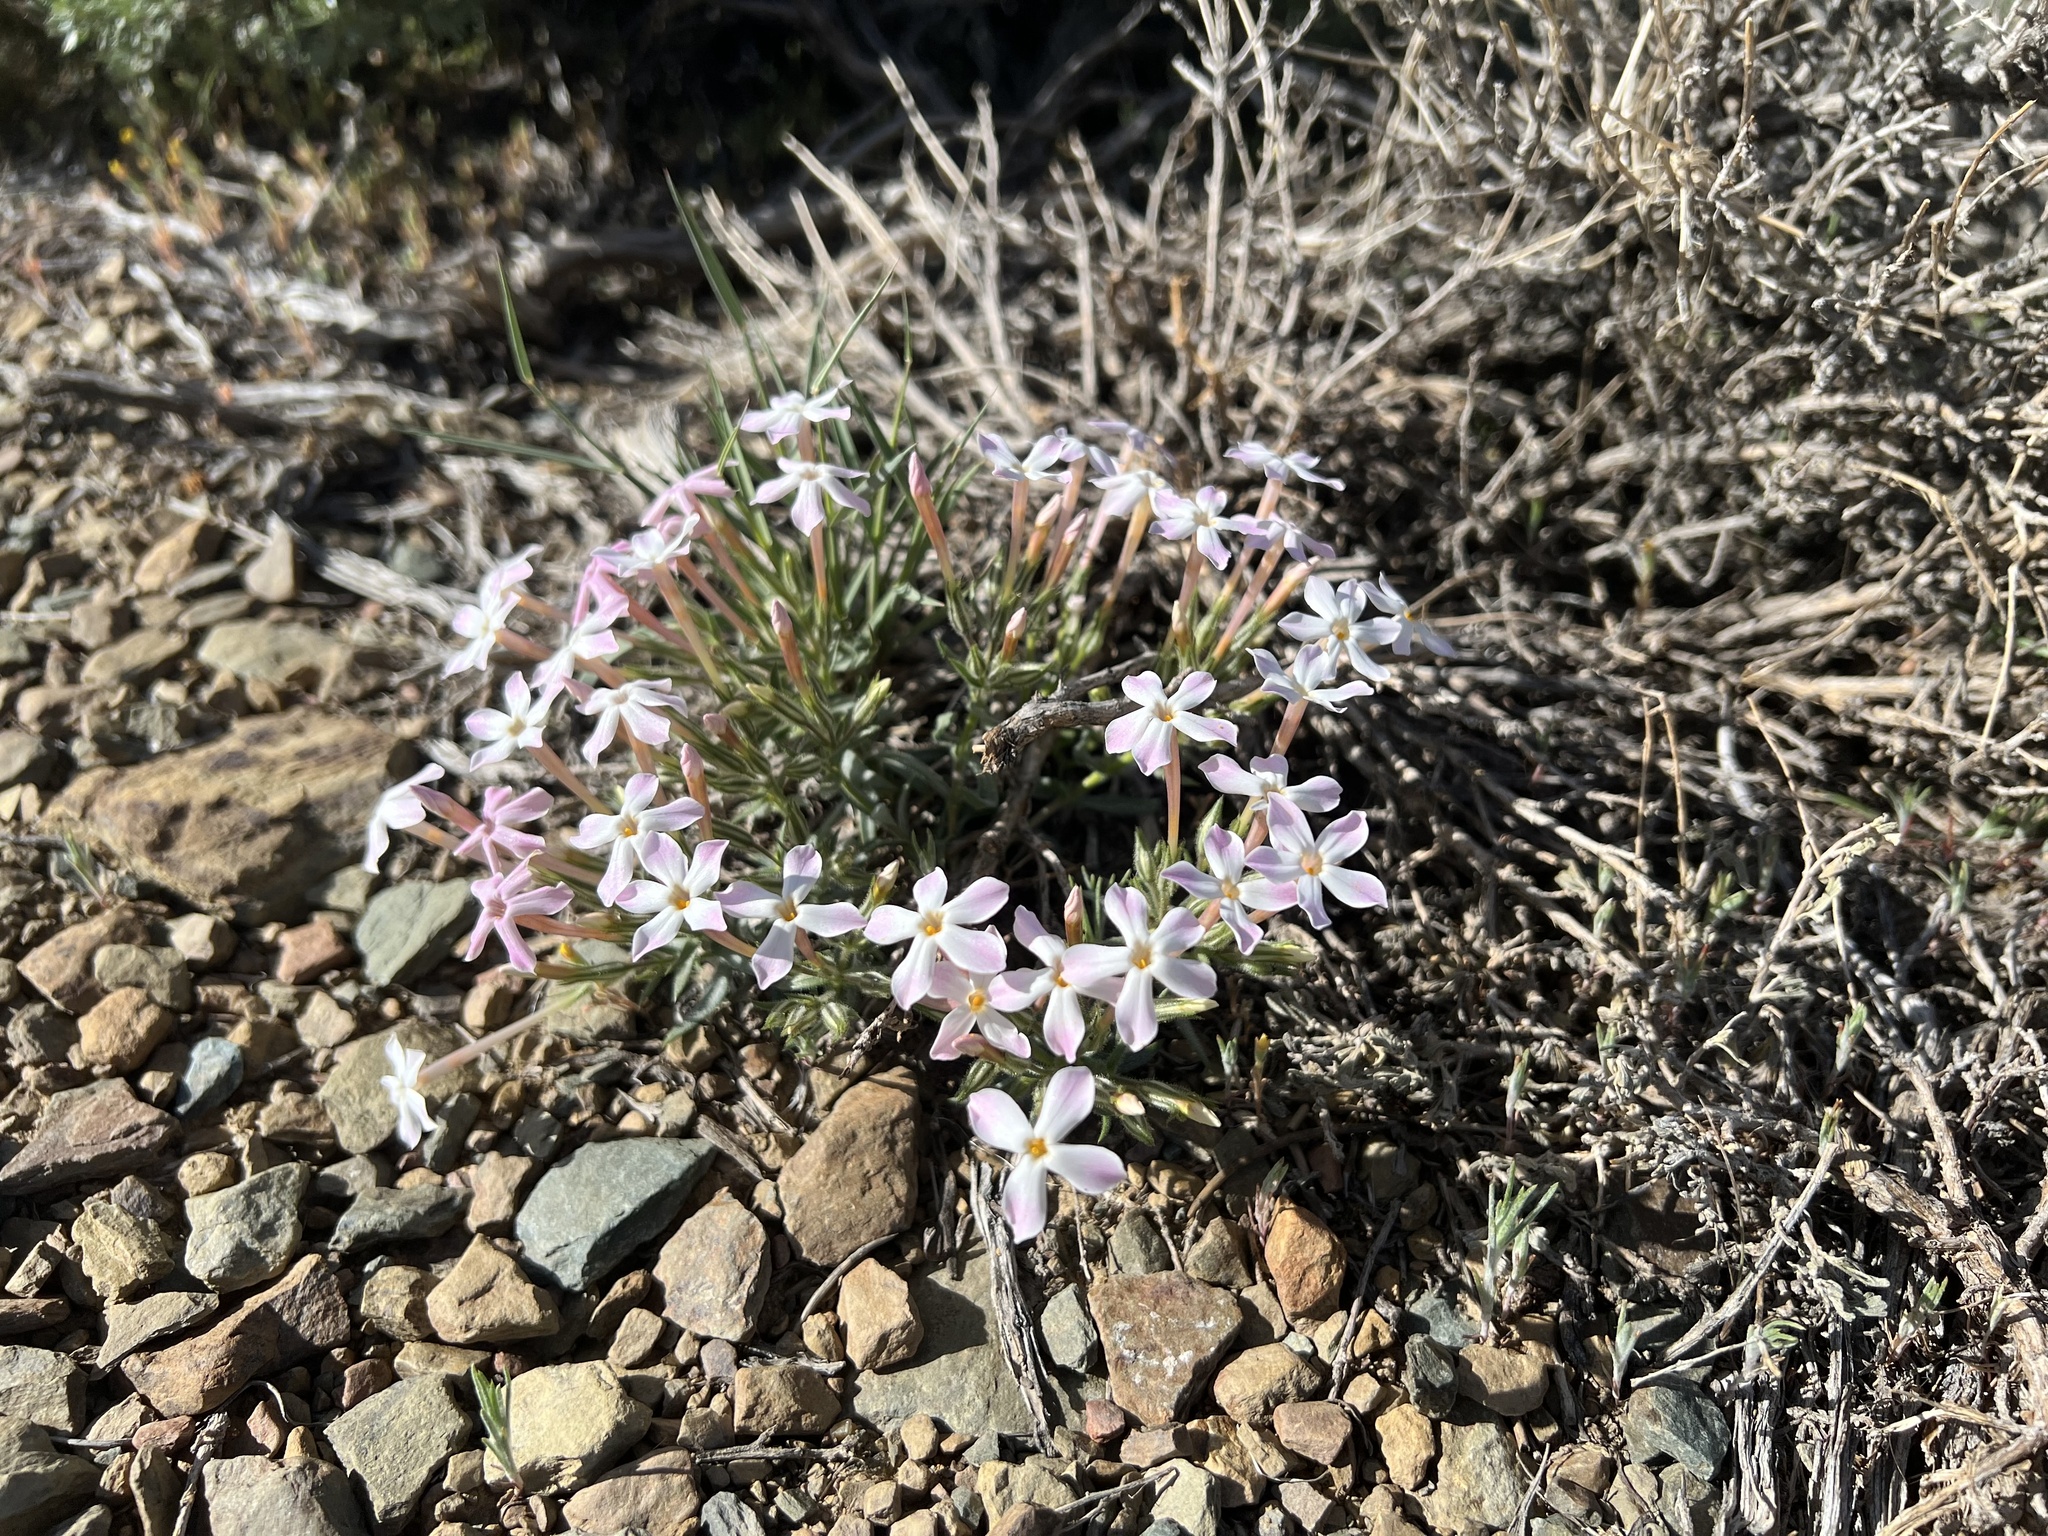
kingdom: Plantae
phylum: Tracheophyta
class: Magnoliopsida
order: Ericales
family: Polemoniaceae
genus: Phlox
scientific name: Phlox longifolia
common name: Longleaf phlox
